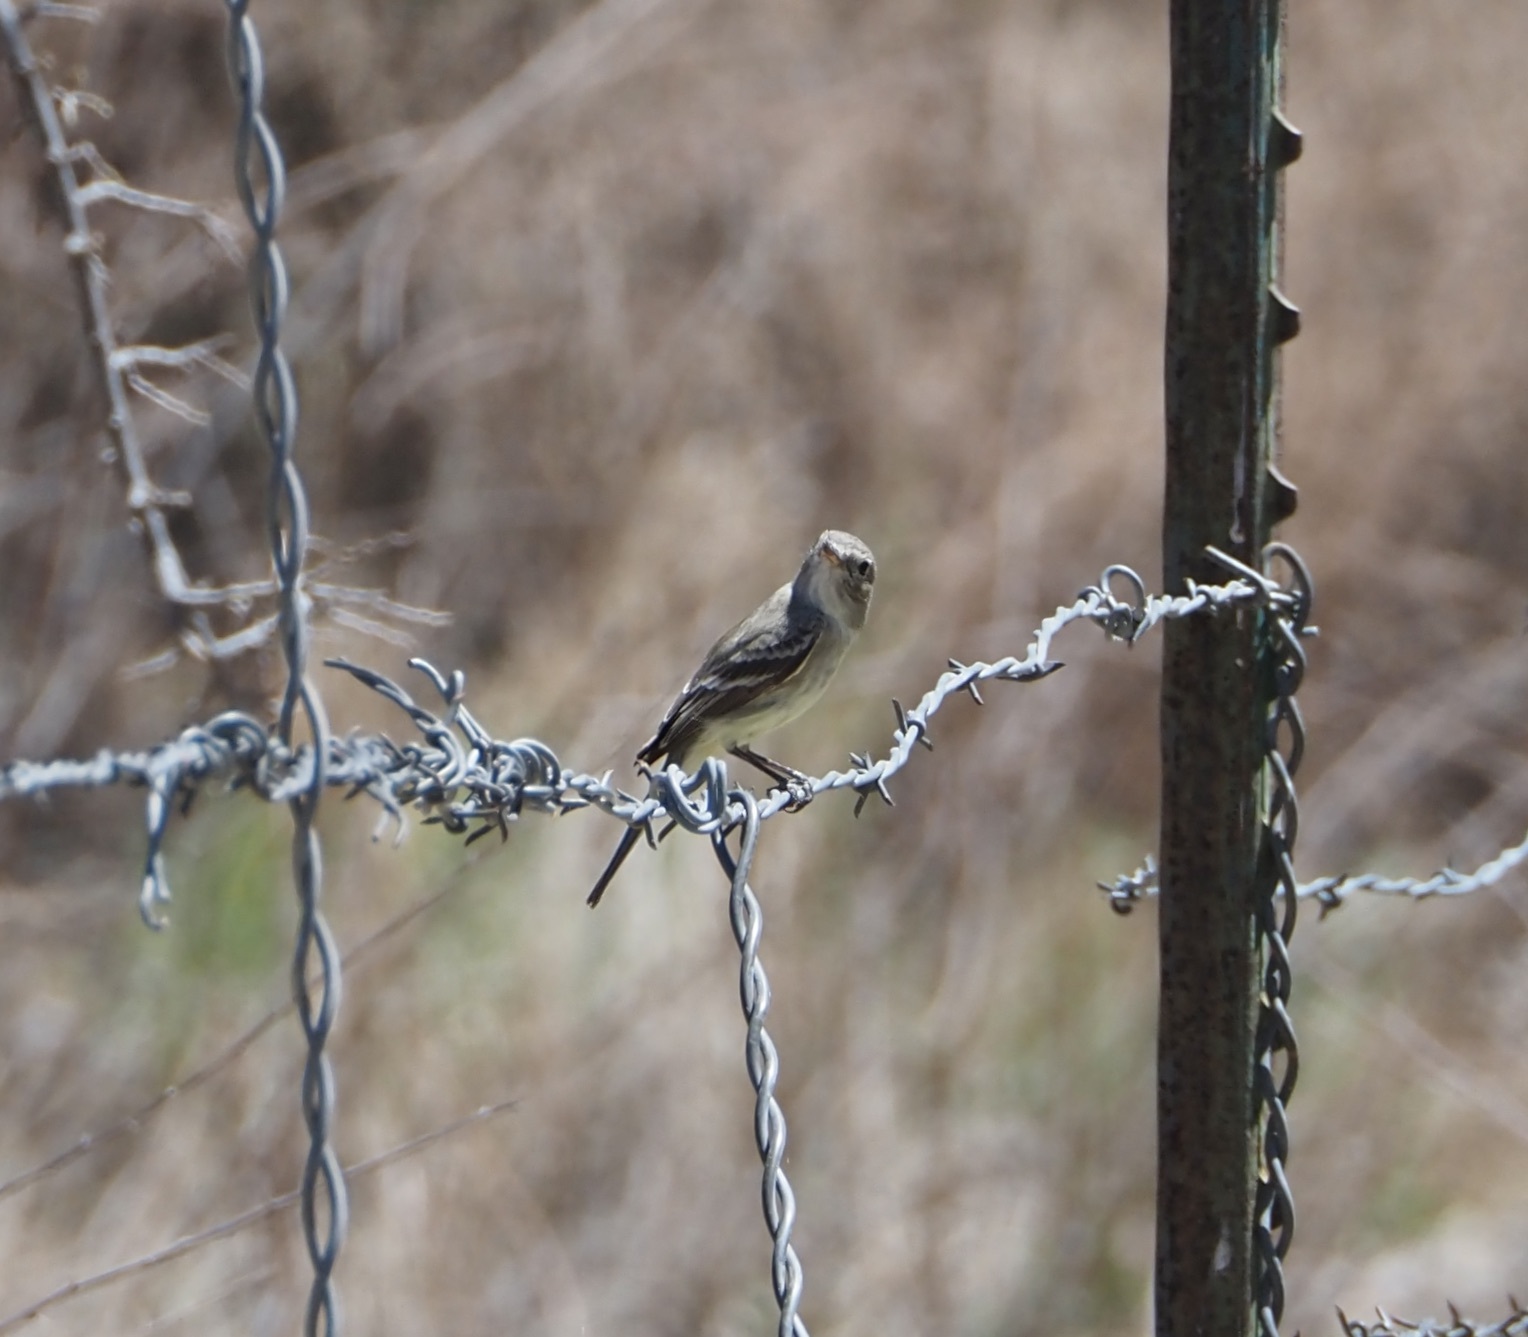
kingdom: Animalia
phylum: Chordata
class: Aves
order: Passeriformes
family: Tyrannidae
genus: Empidonax
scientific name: Empidonax wrightii
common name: Gray flycatcher
